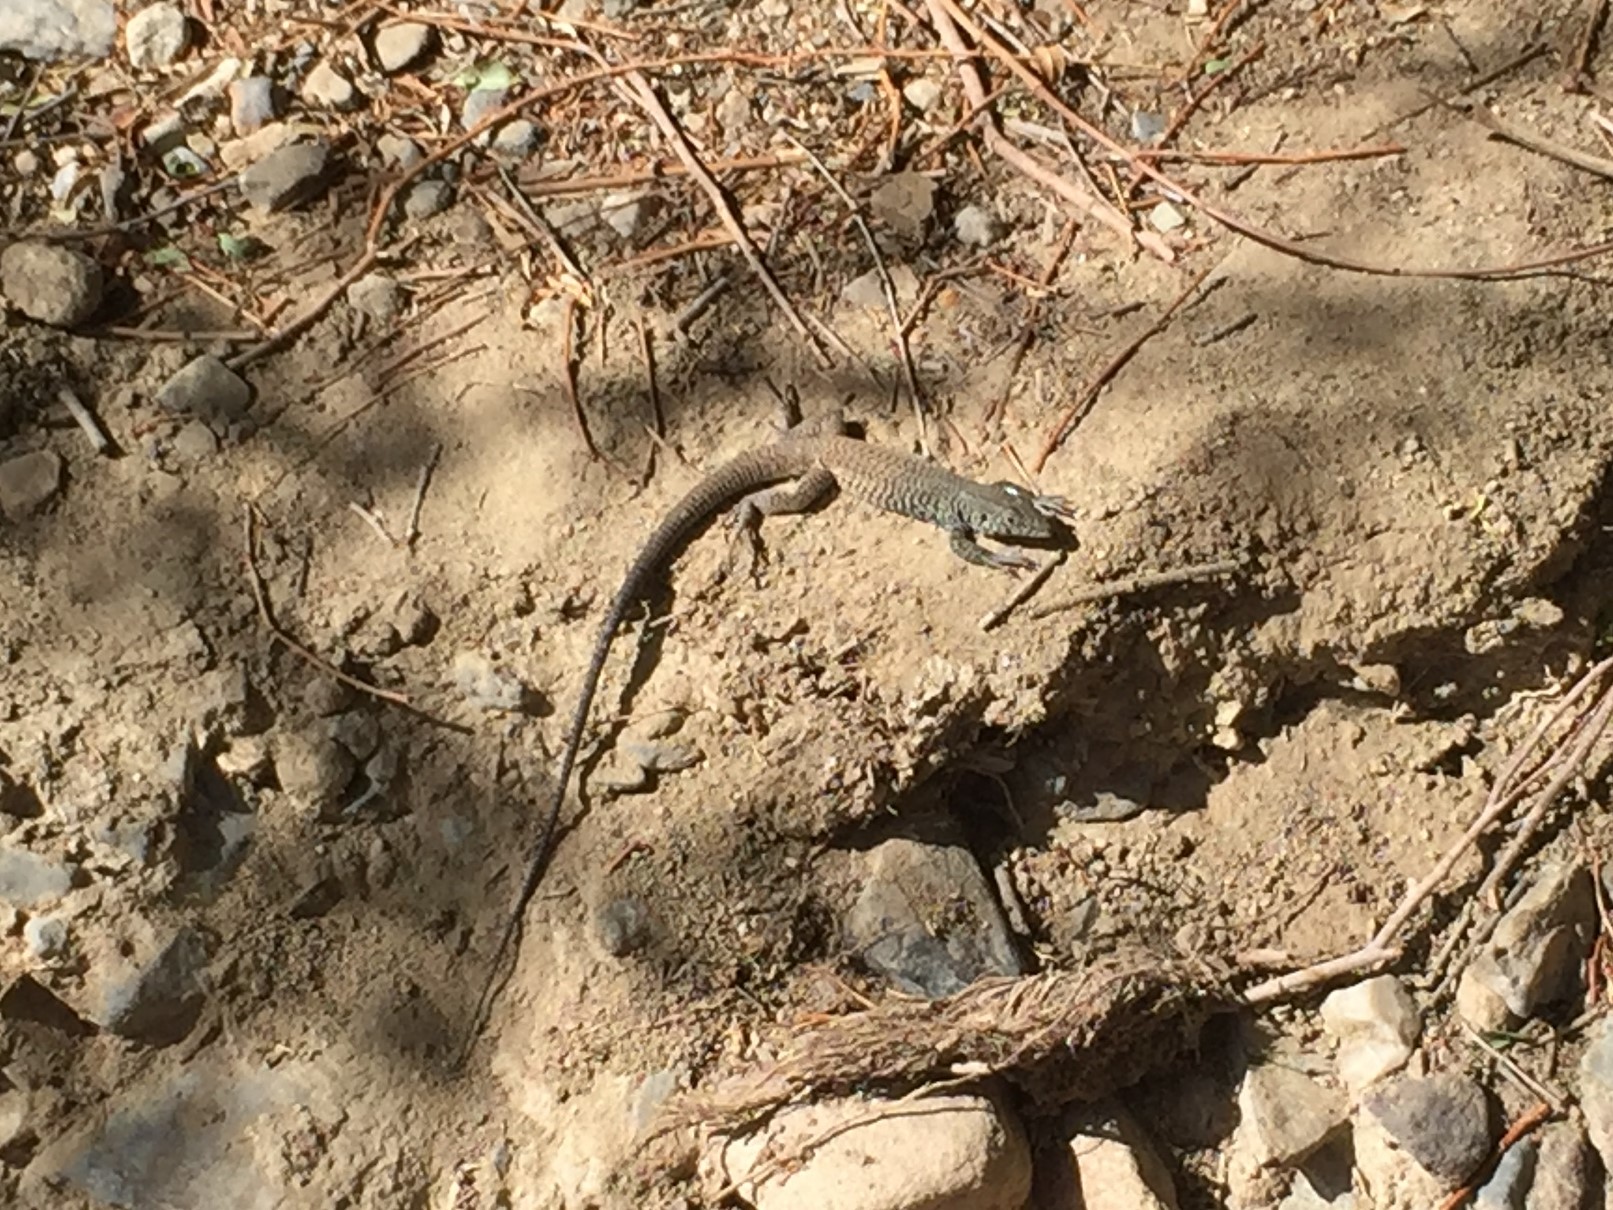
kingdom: Animalia
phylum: Chordata
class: Squamata
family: Teiidae
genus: Aspidoscelis
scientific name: Aspidoscelis tigris
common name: Tiger whiptail
